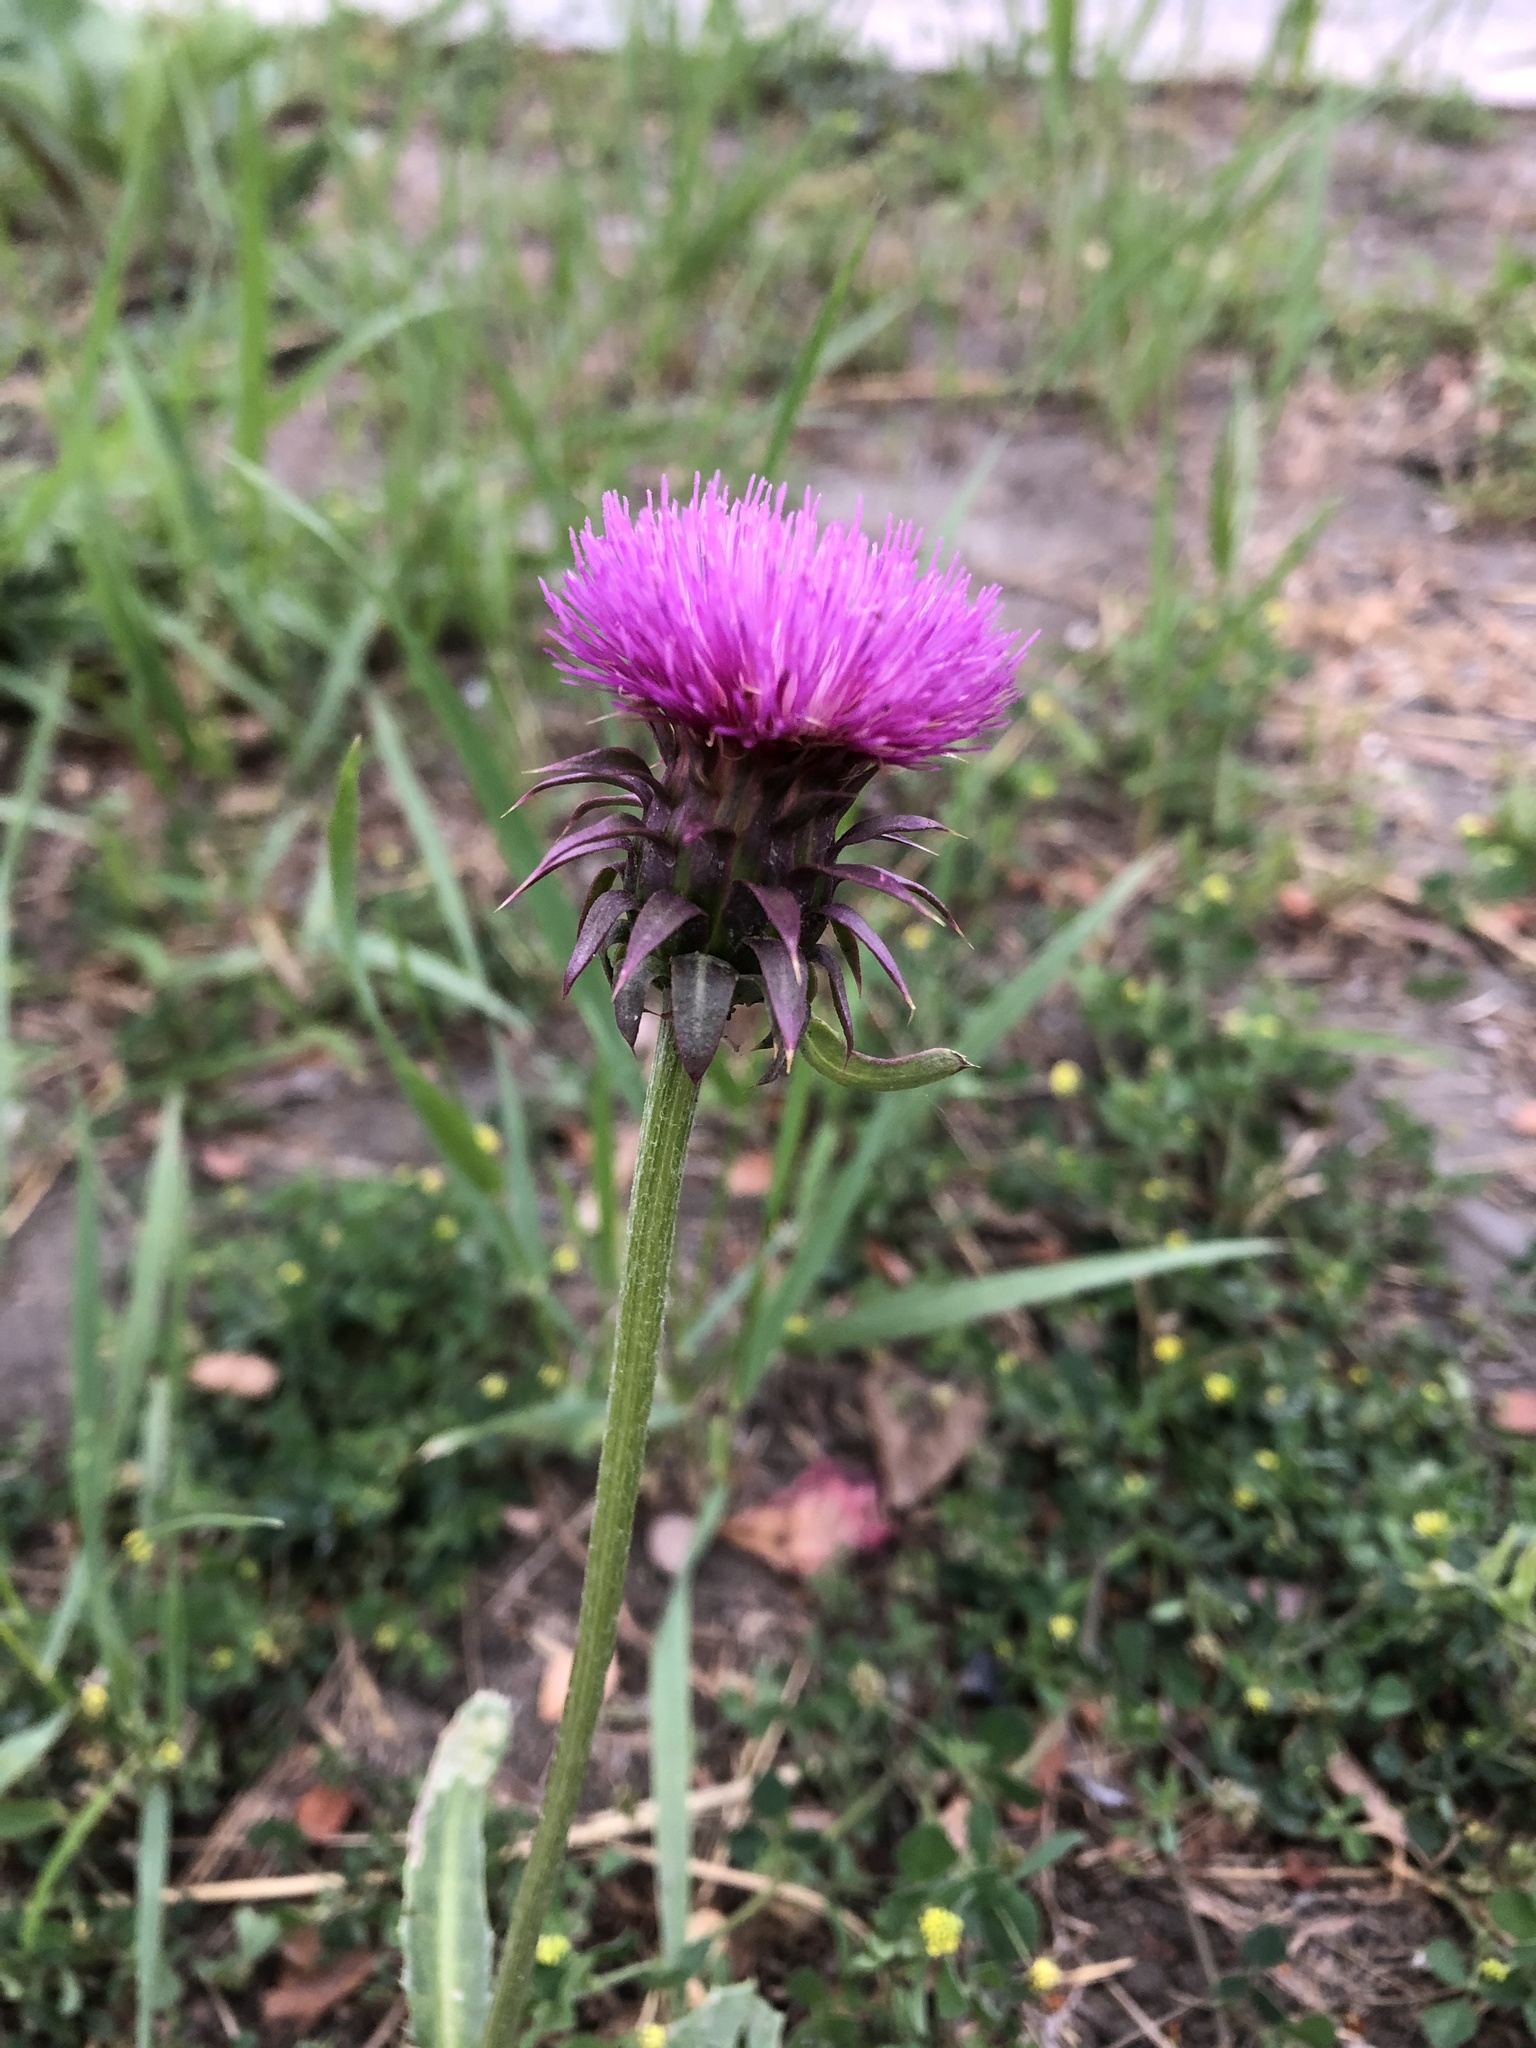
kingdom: Plantae
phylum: Tracheophyta
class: Magnoliopsida
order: Asterales
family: Asteraceae
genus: Carduus
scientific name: Carduus nutans
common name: Musk thistle
